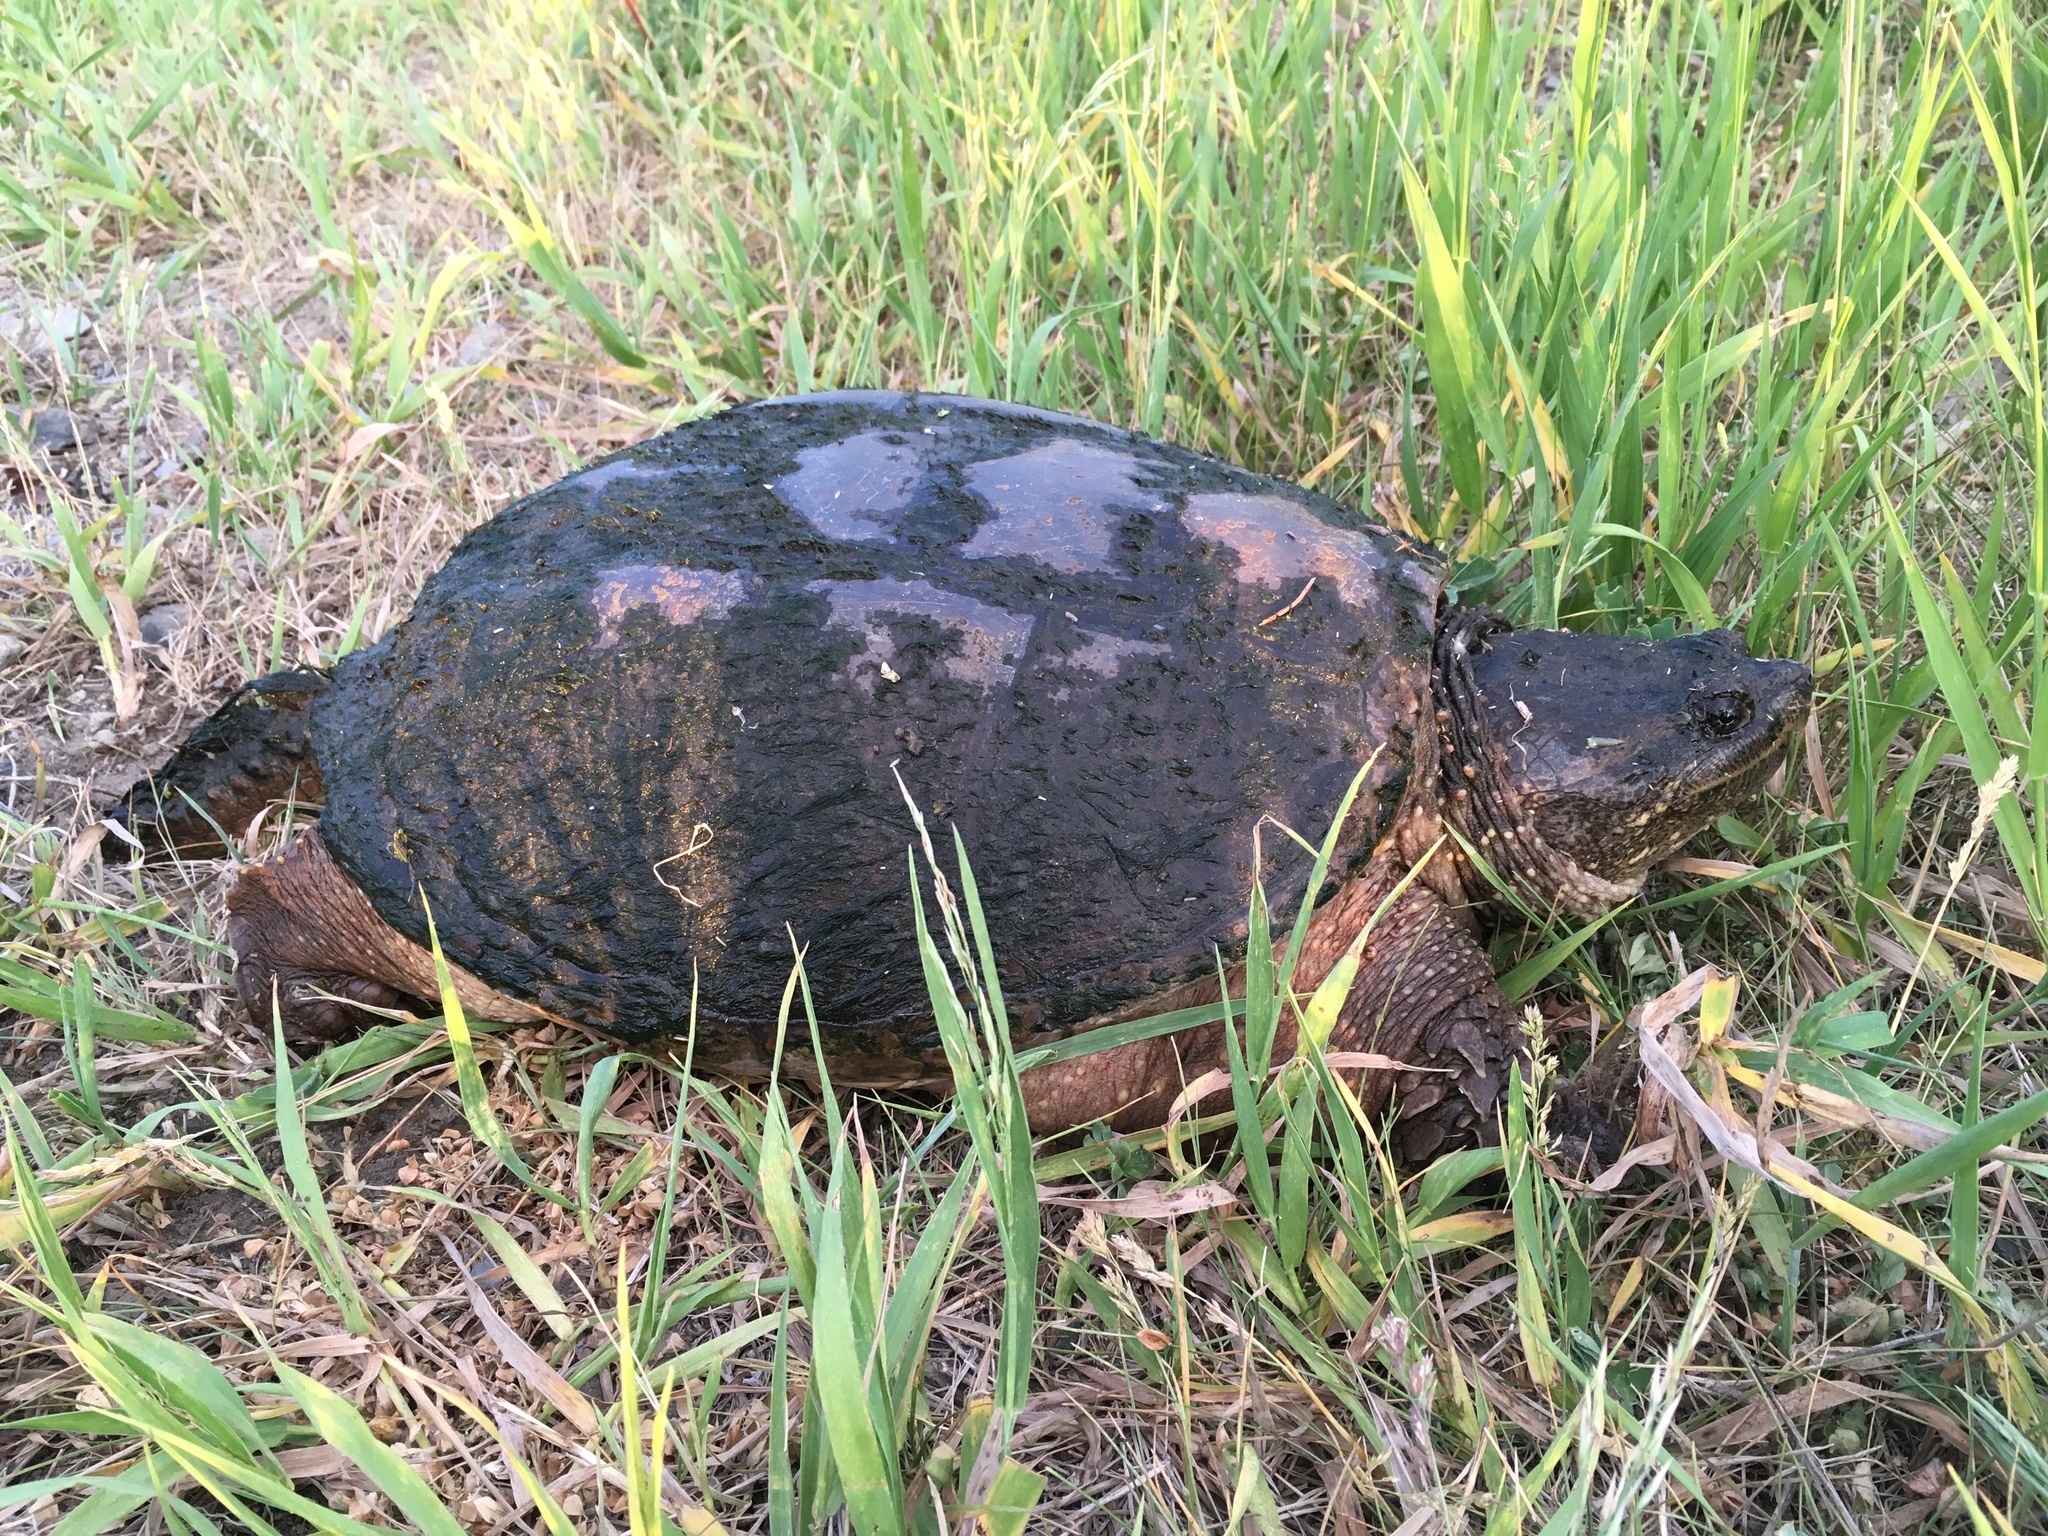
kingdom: Animalia
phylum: Chordata
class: Testudines
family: Chelydridae
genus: Chelydra
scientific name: Chelydra serpentina
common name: Common snapping turtle
